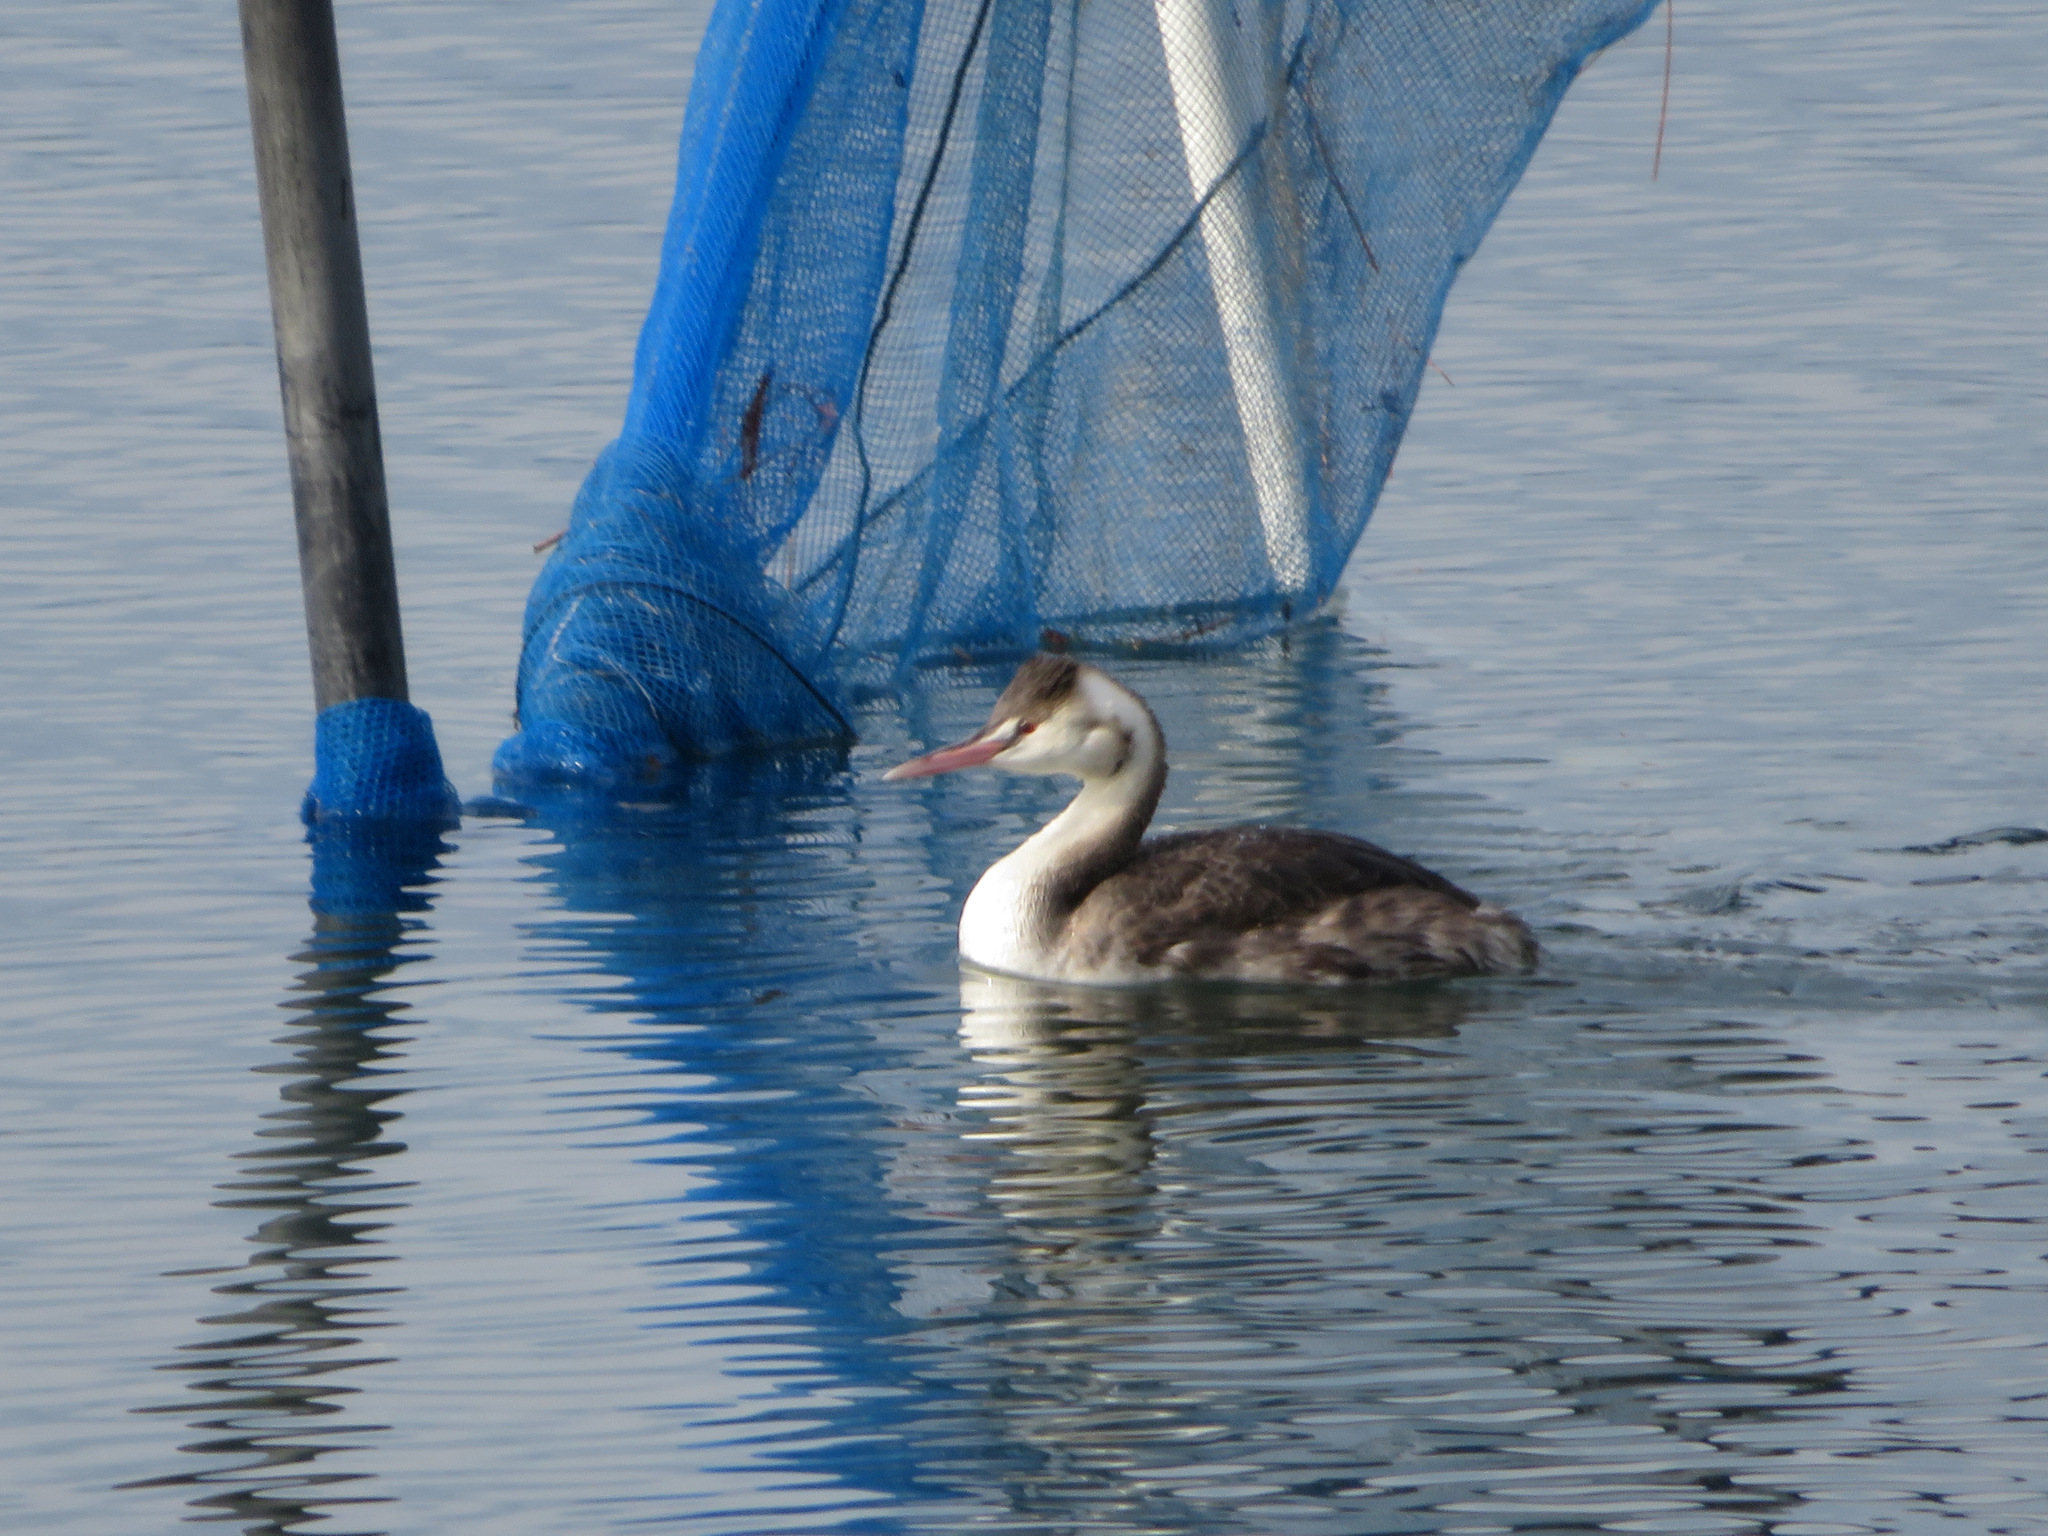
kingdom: Animalia
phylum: Chordata
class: Aves
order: Podicipediformes
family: Podicipedidae
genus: Podiceps
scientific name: Podiceps cristatus
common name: Great crested grebe
